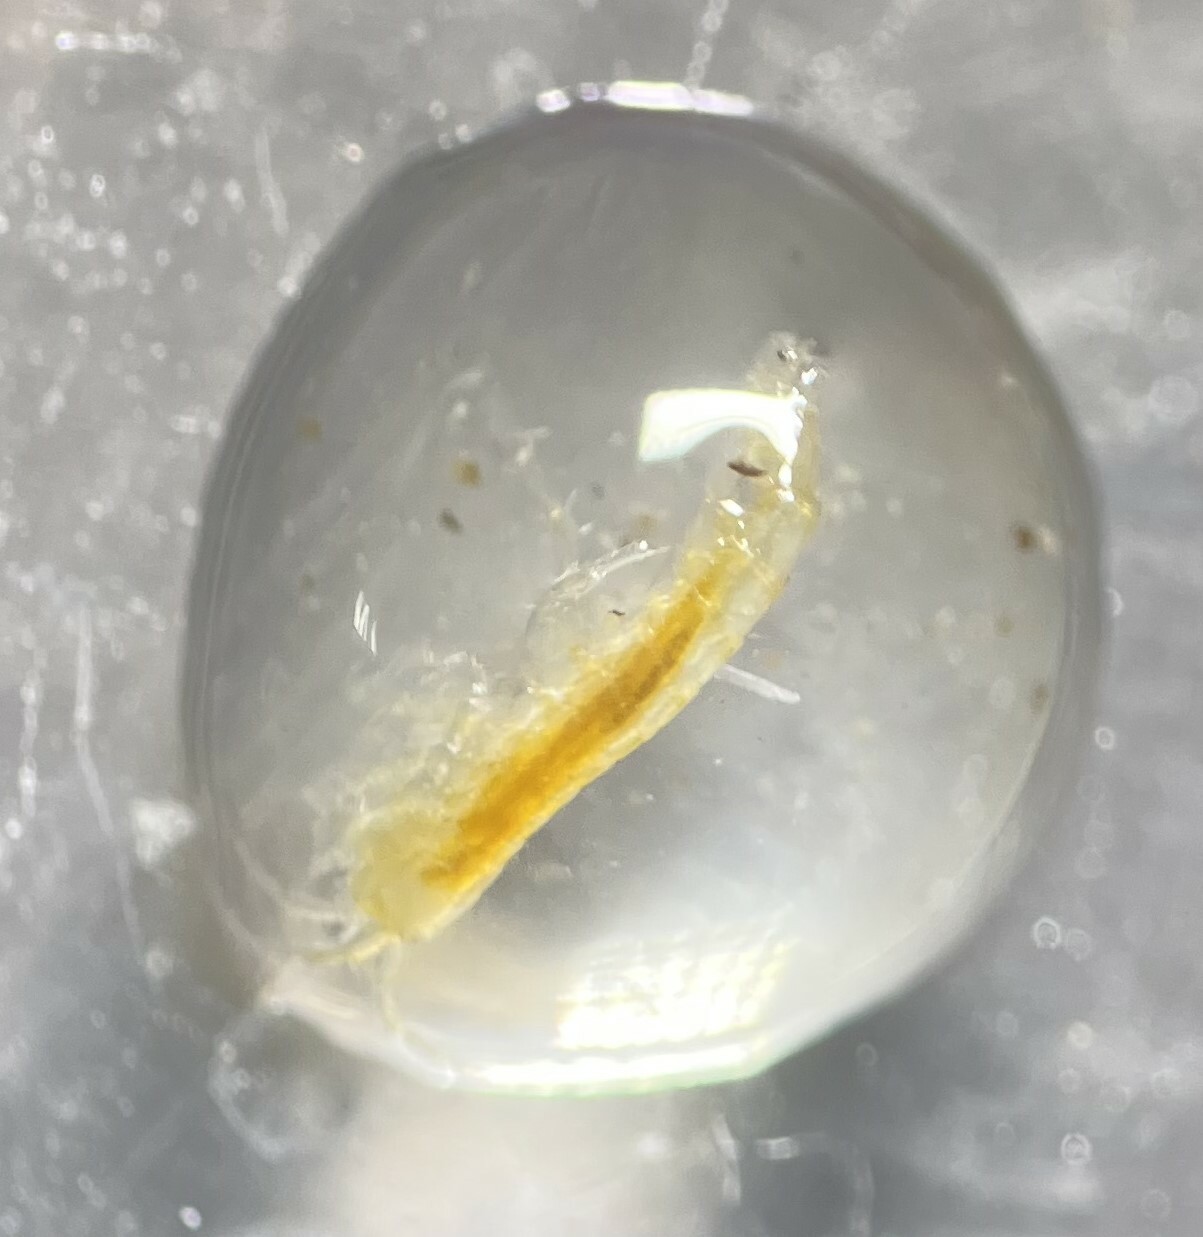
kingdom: Animalia
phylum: Arthropoda
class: Malacostraca
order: Amphipoda
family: Crangonyctidae
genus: Stygobromus
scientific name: Stygobromus pecki
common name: Peck stygobromid
